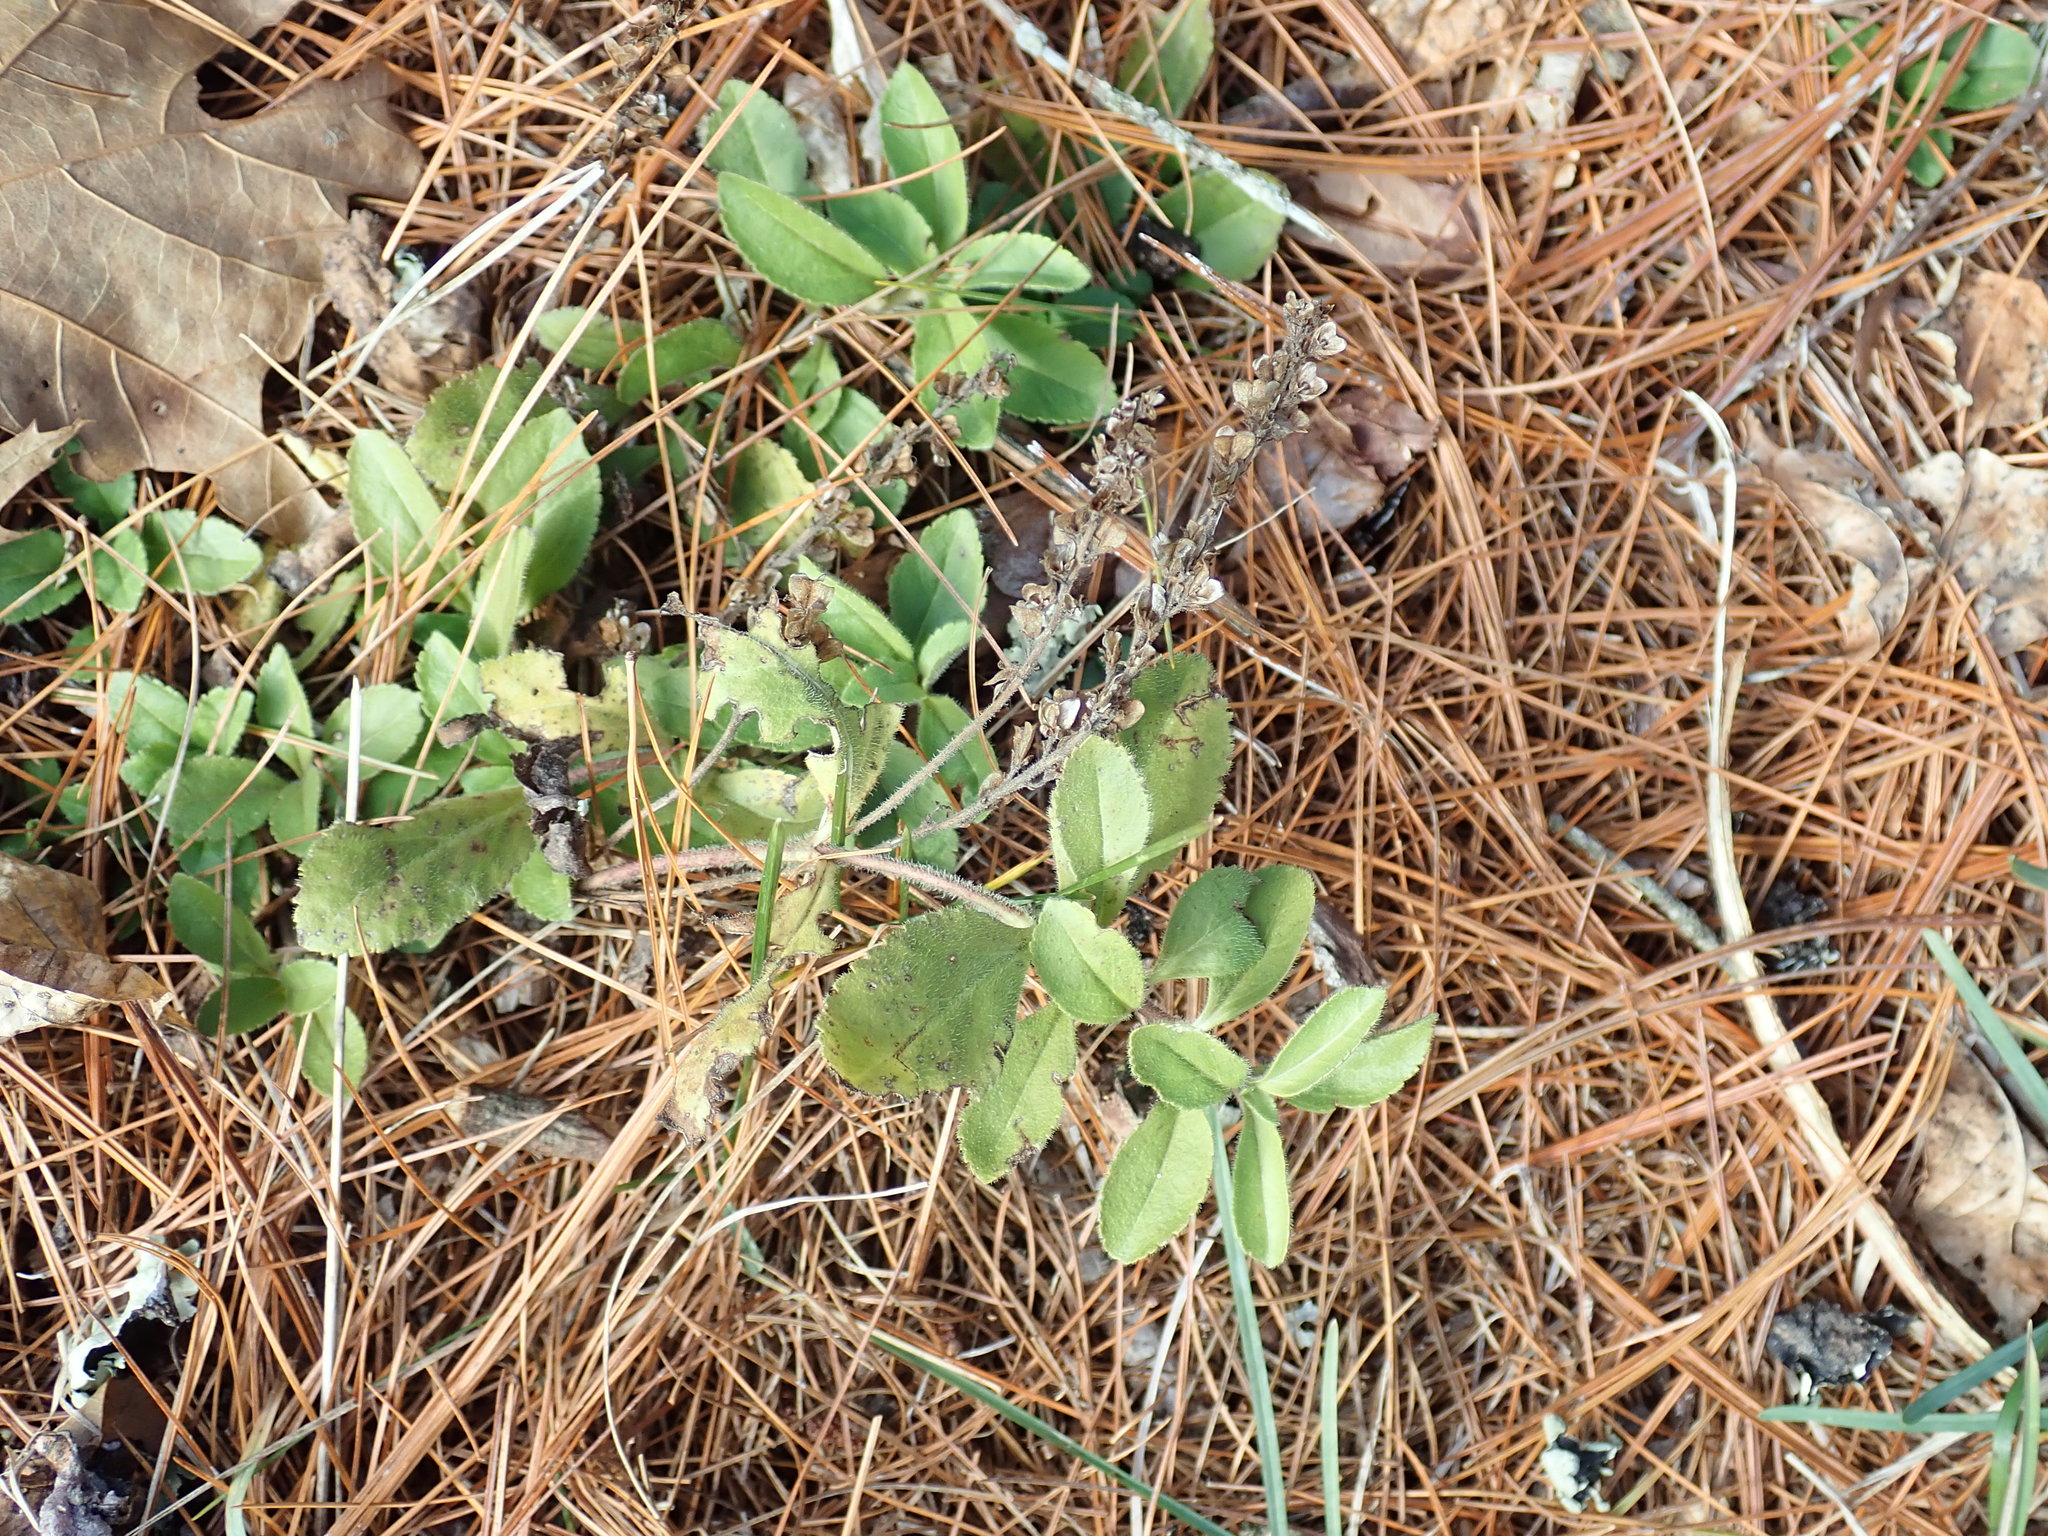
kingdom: Plantae
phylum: Tracheophyta
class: Magnoliopsida
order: Lamiales
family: Plantaginaceae
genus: Veronica
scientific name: Veronica officinalis
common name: Common speedwell
